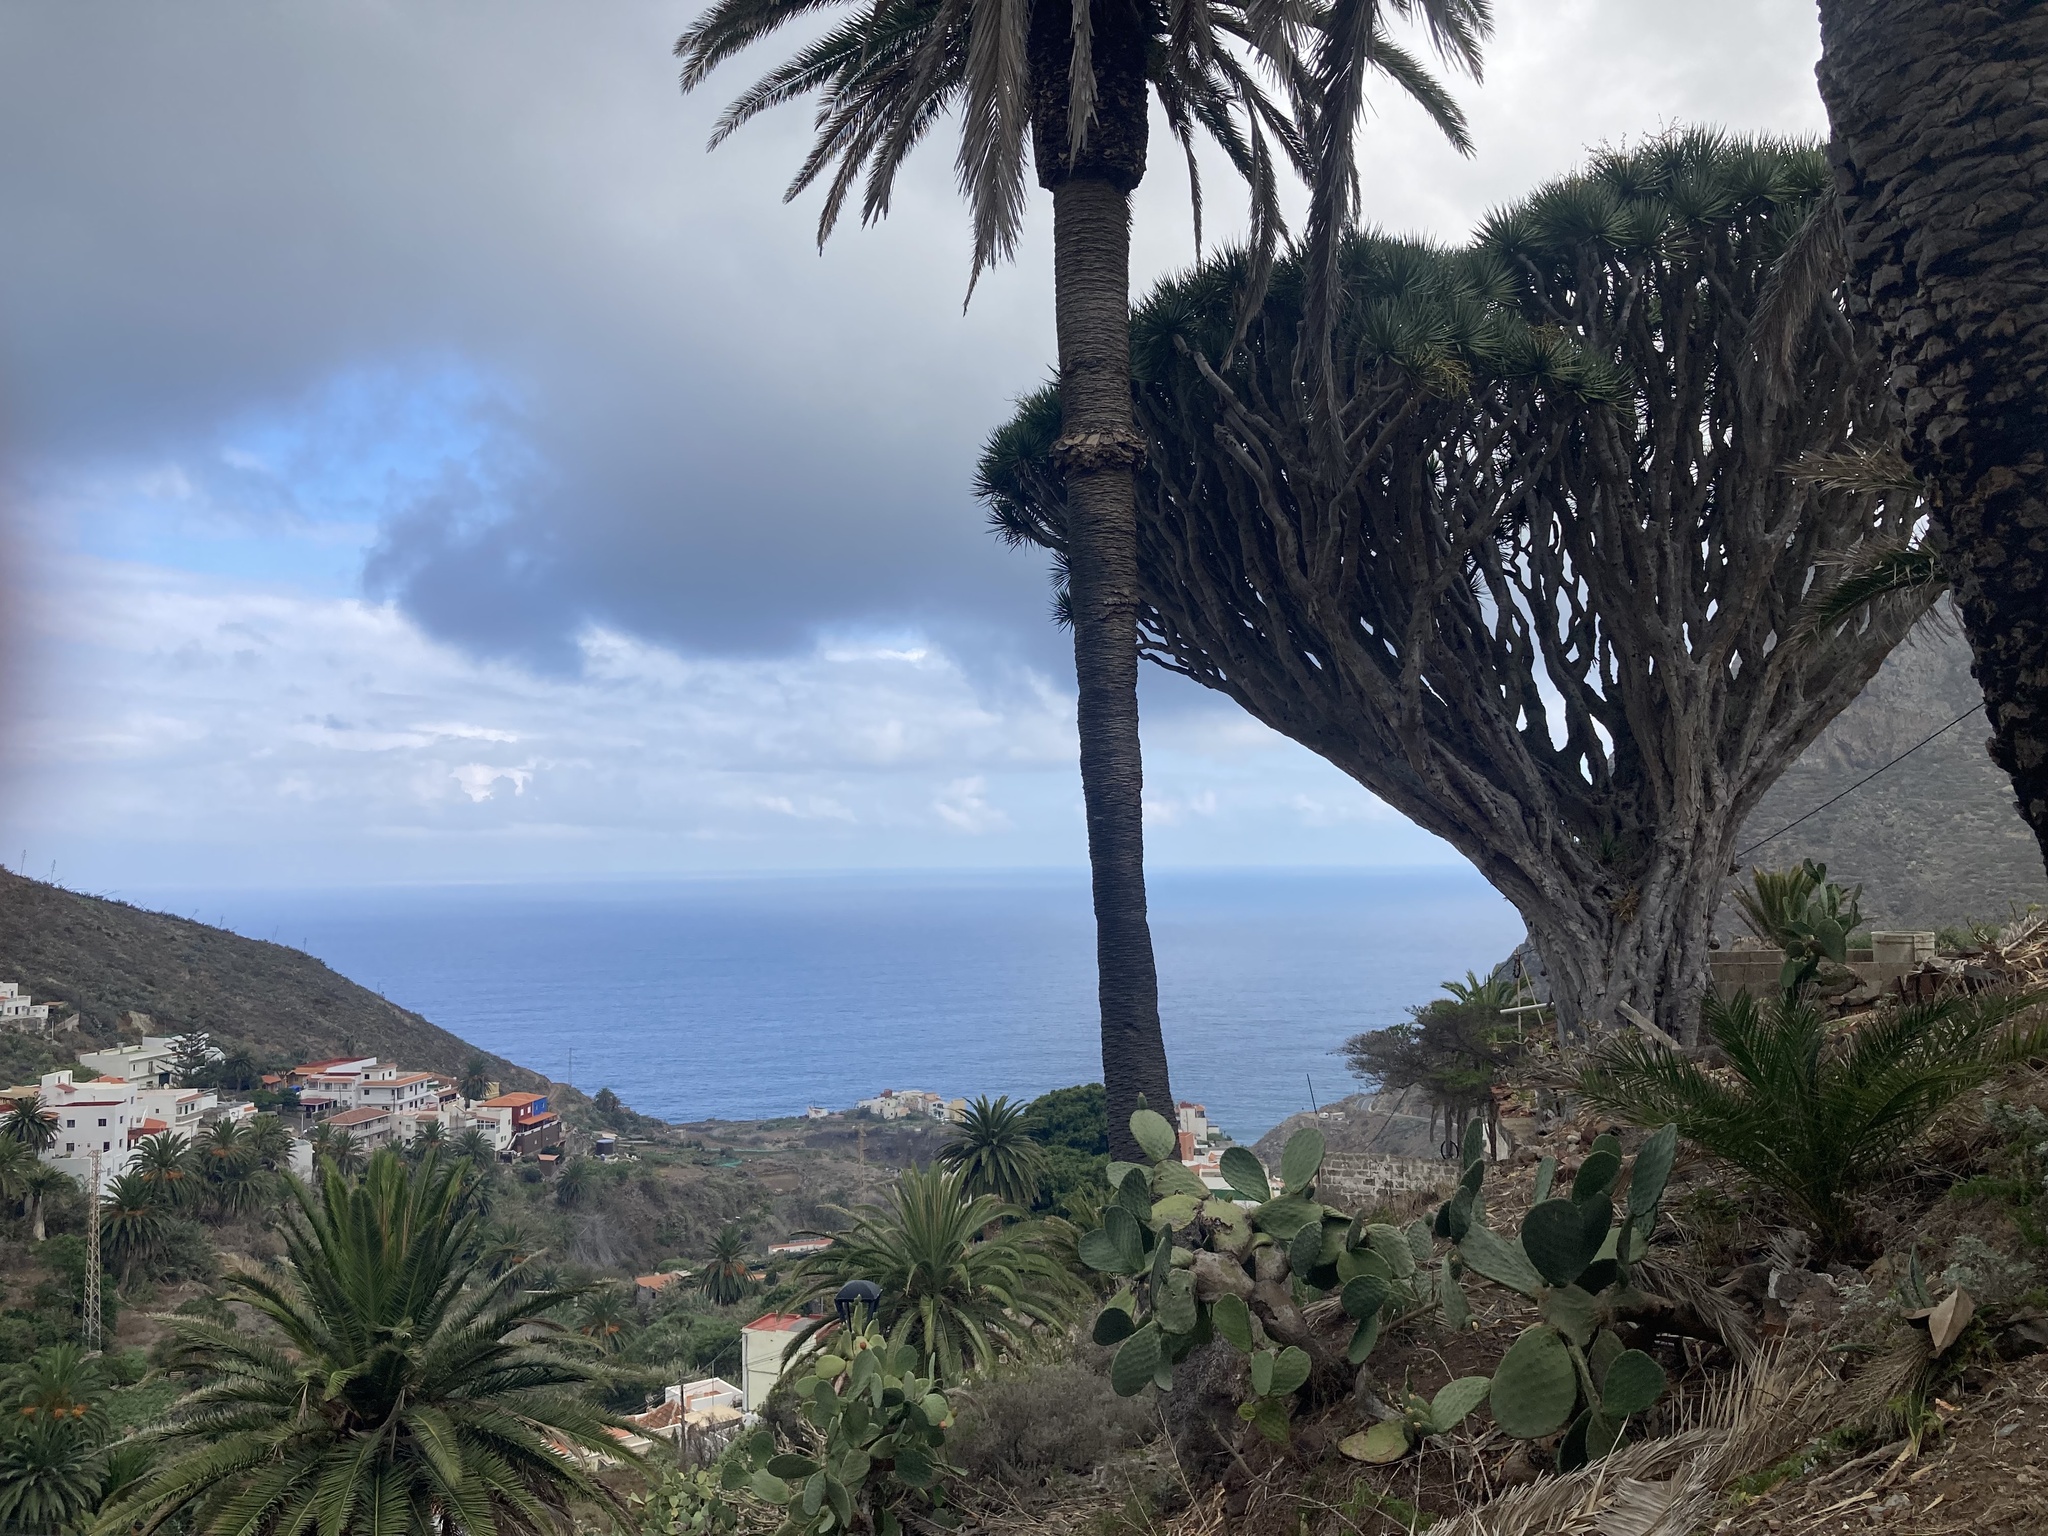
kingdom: Plantae
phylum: Tracheophyta
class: Liliopsida
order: Asparagales
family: Asparagaceae
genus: Dracaena
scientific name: Dracaena draco
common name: Canary island dragon tree
